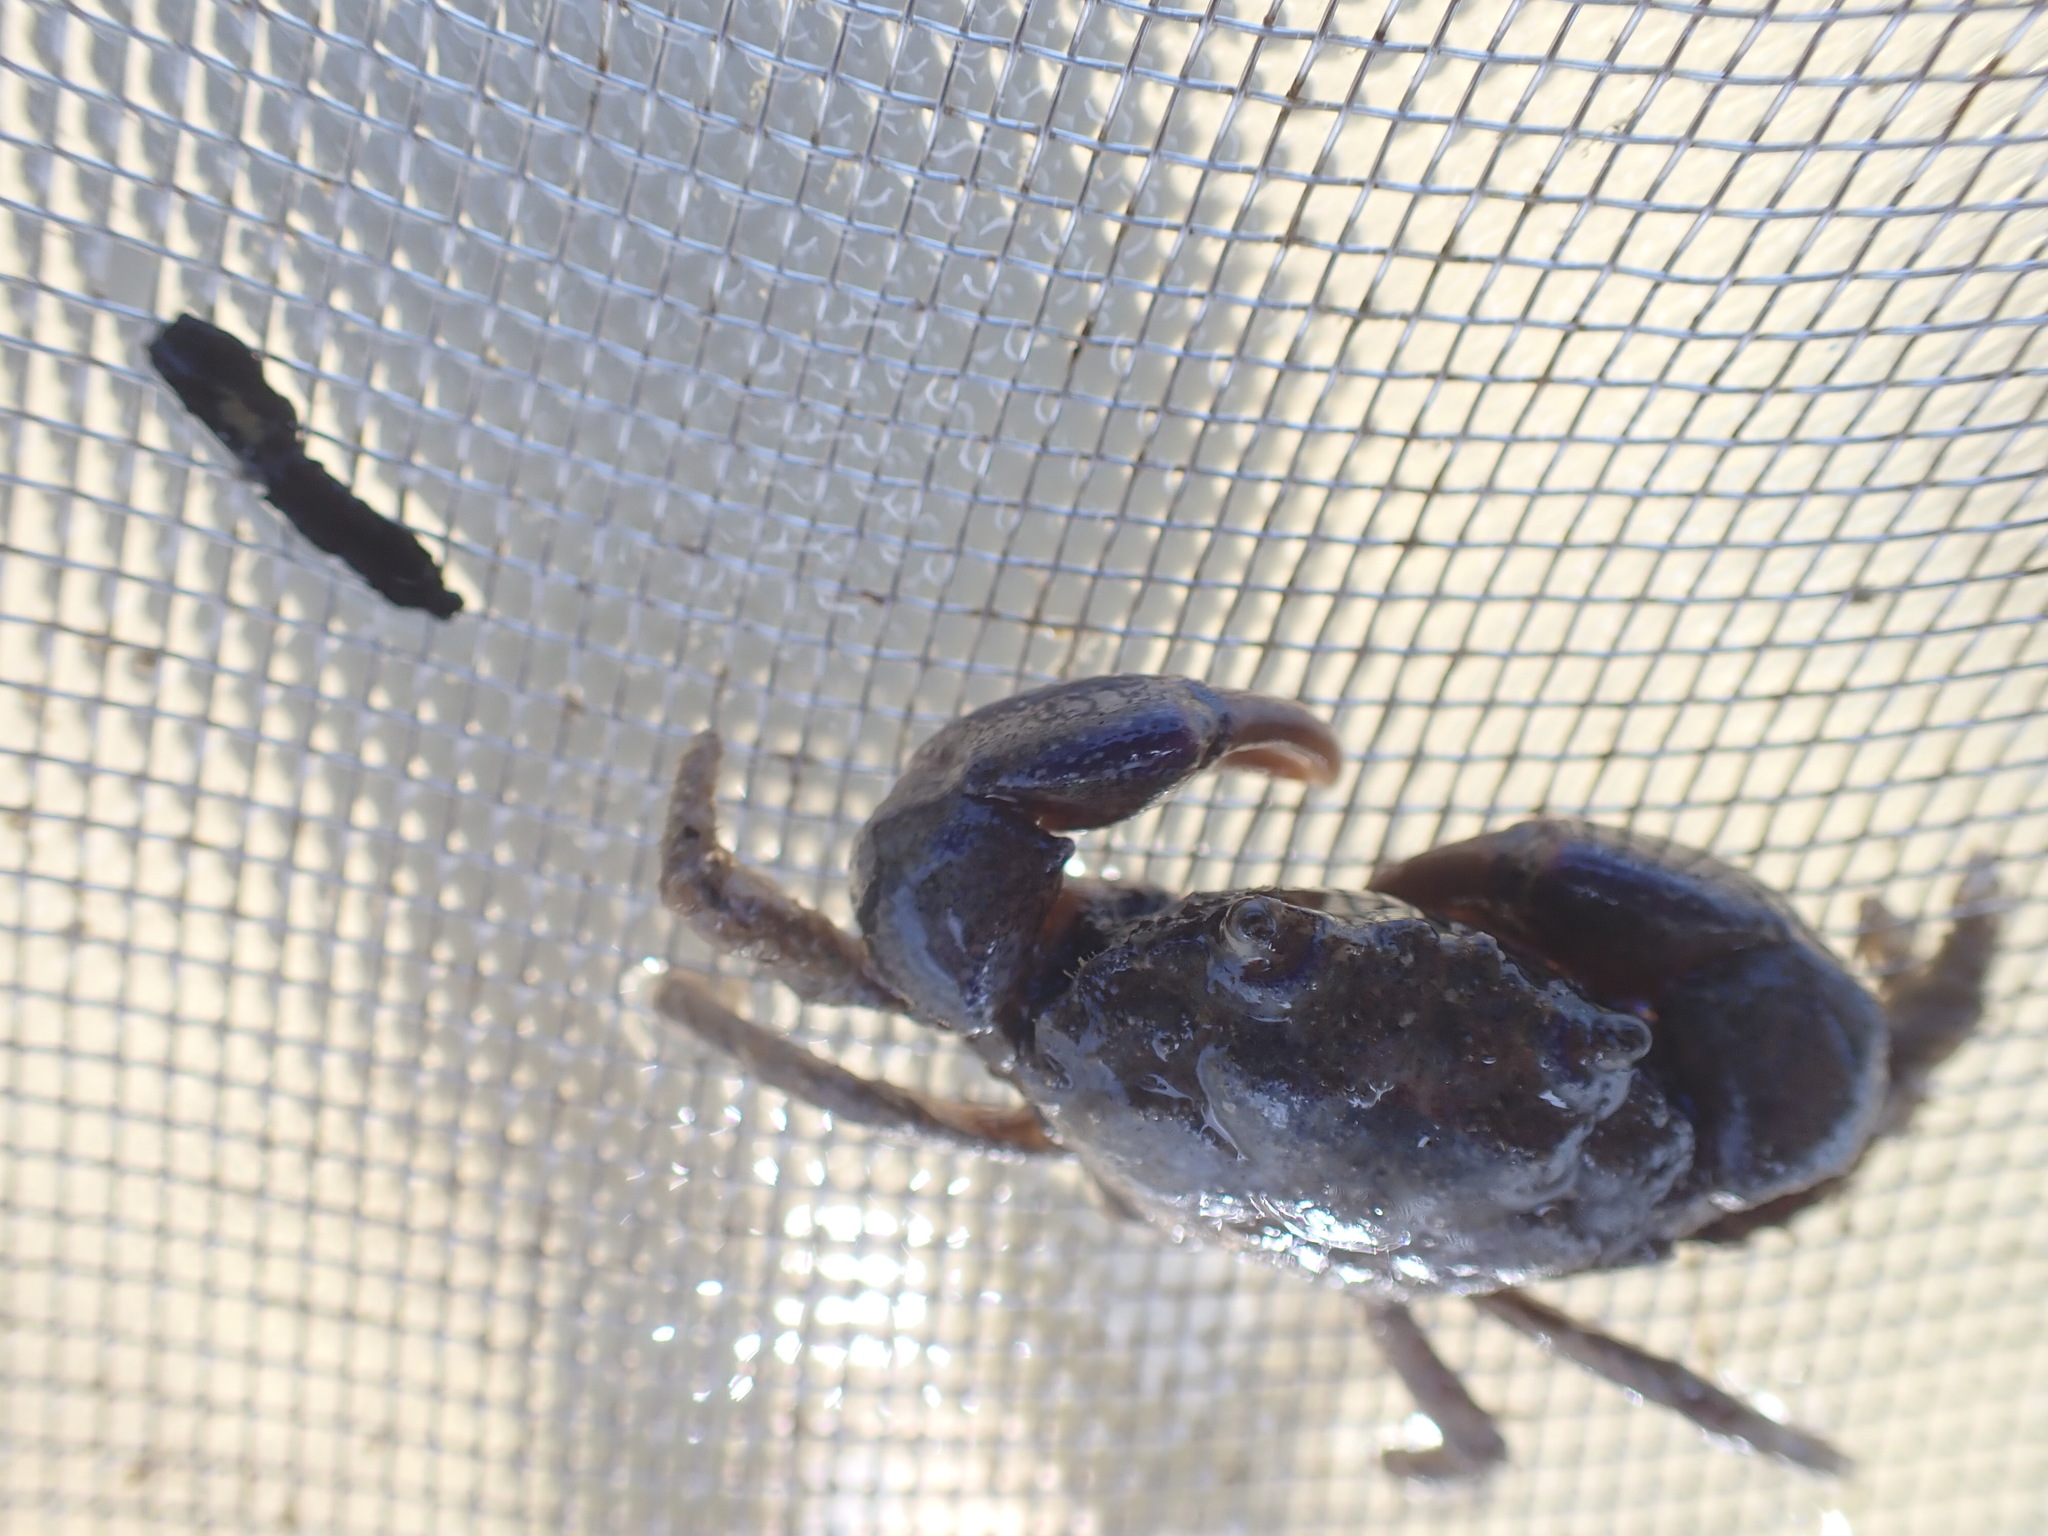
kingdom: Animalia
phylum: Arthropoda
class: Malacostraca
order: Decapoda
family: Pilumnidae
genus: Pilumnopeus
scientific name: Pilumnopeus serratifrons
